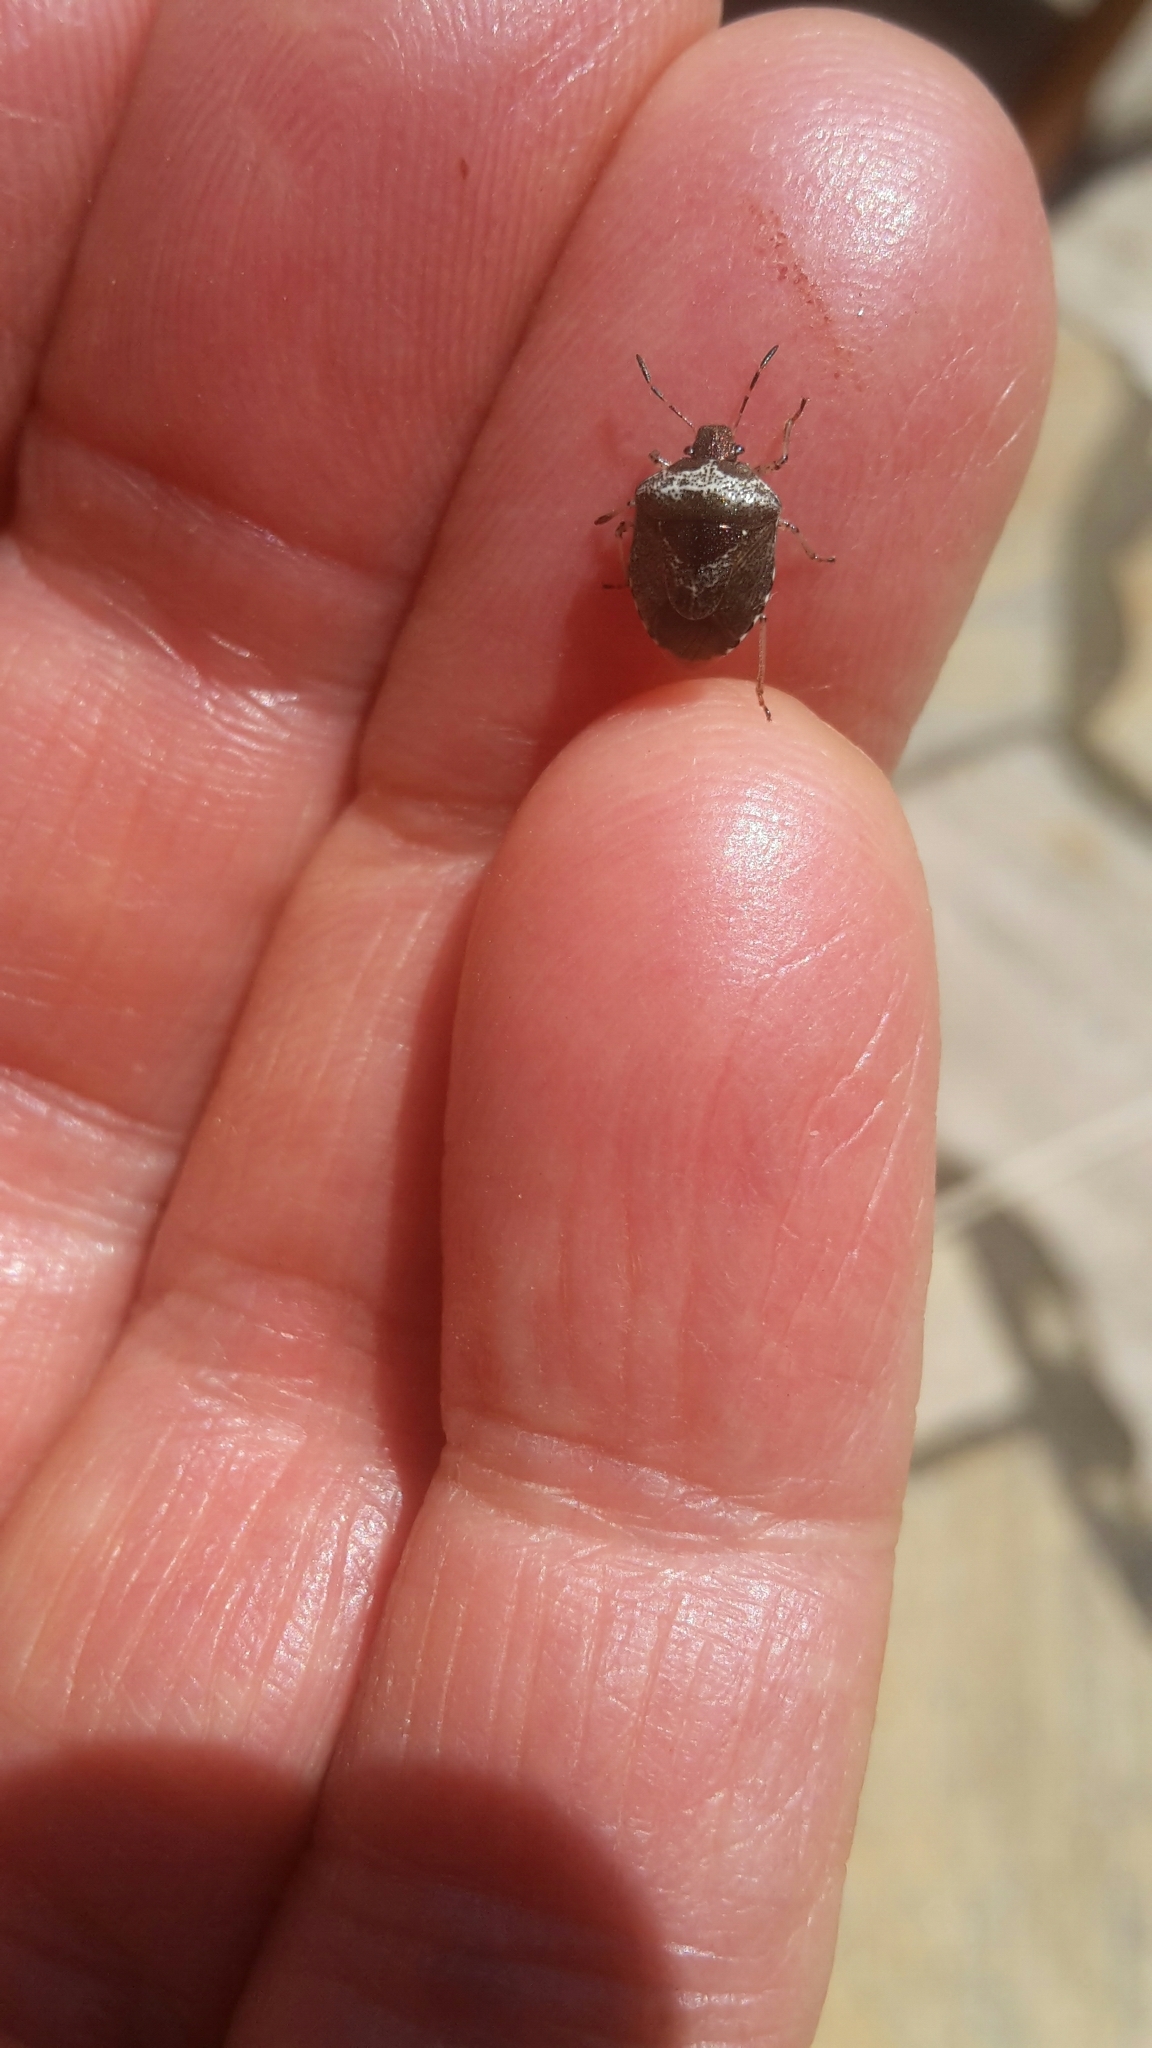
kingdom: Animalia
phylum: Arthropoda
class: Insecta
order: Hemiptera
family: Pentatomidae
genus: Eysarcoris
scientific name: Eysarcoris venustissimus
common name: Woundwort shieldbug
